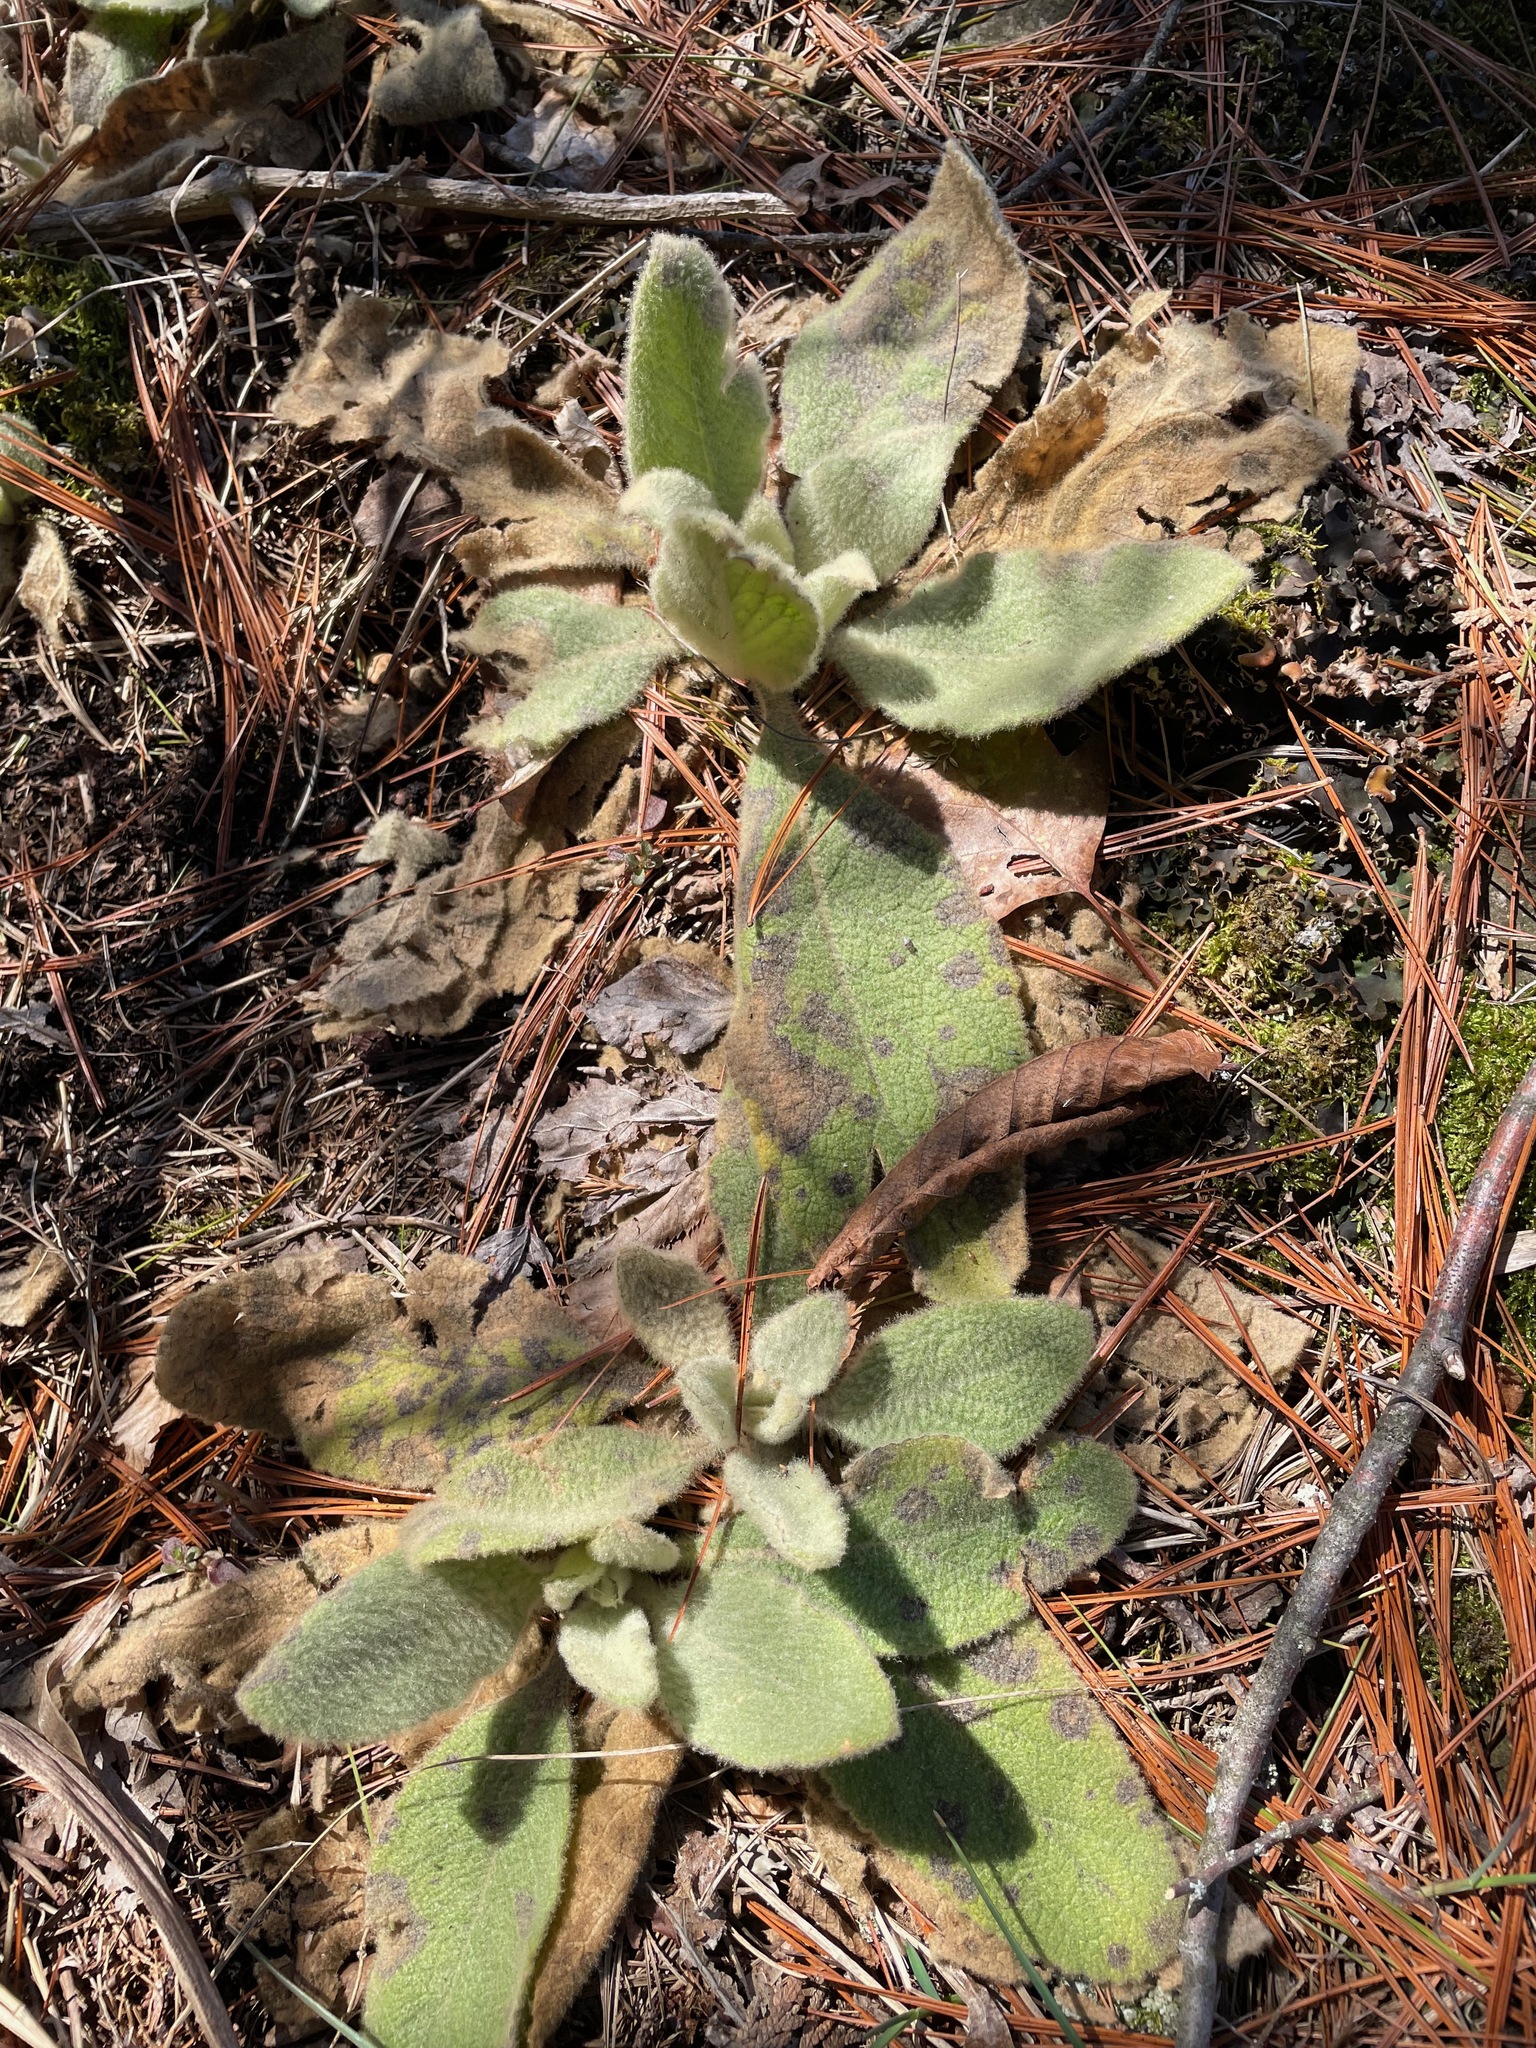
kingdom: Plantae
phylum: Tracheophyta
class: Magnoliopsida
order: Lamiales
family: Scrophulariaceae
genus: Verbascum
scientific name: Verbascum thapsus
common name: Common mullein
